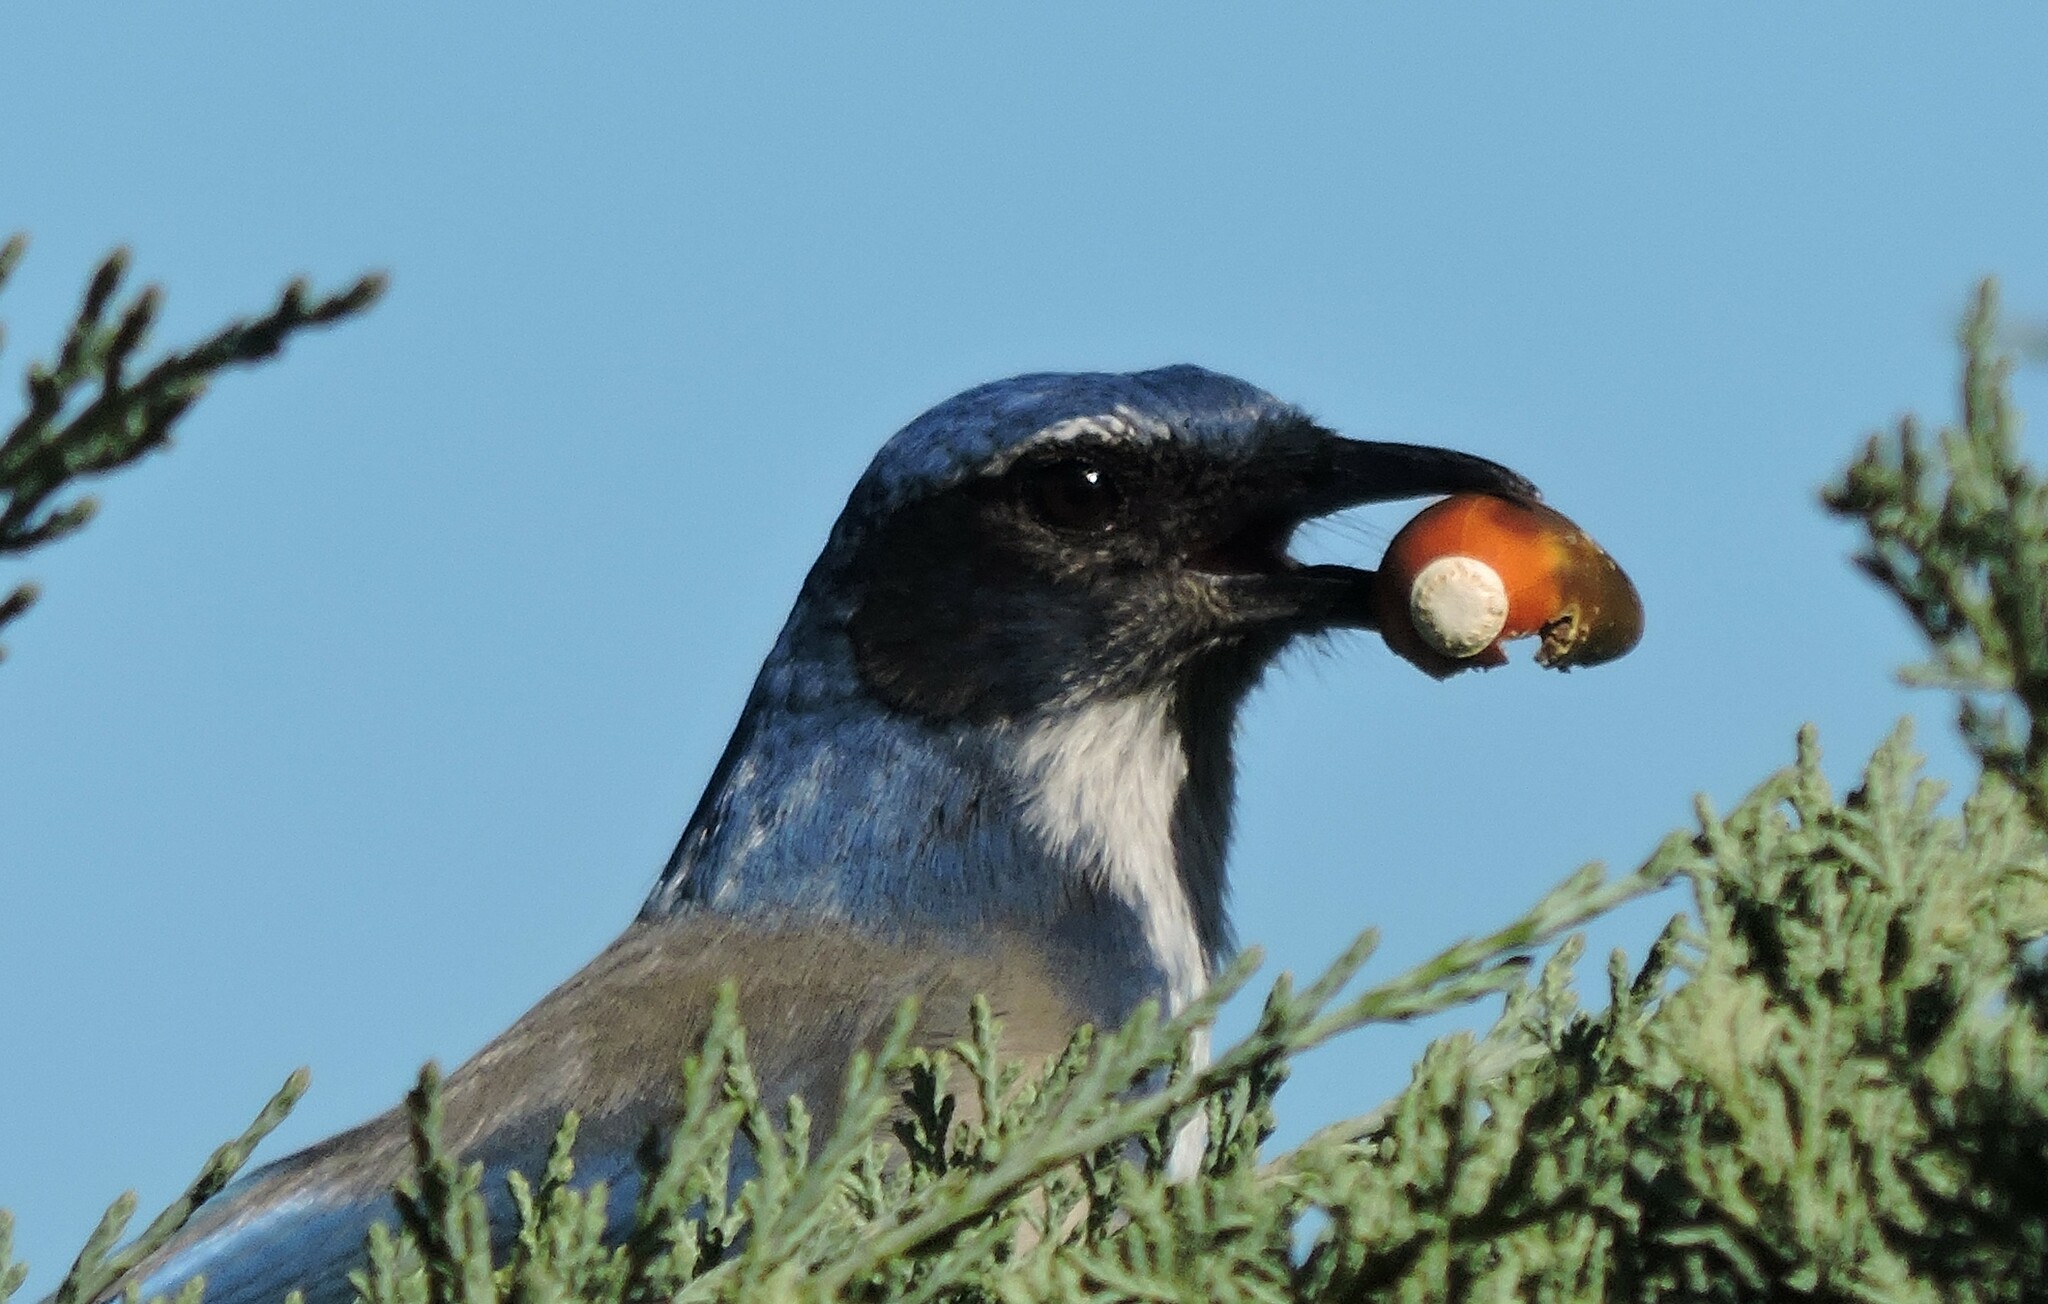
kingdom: Animalia
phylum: Chordata
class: Aves
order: Passeriformes
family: Corvidae
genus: Aphelocoma
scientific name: Aphelocoma californica
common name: California scrub-jay
